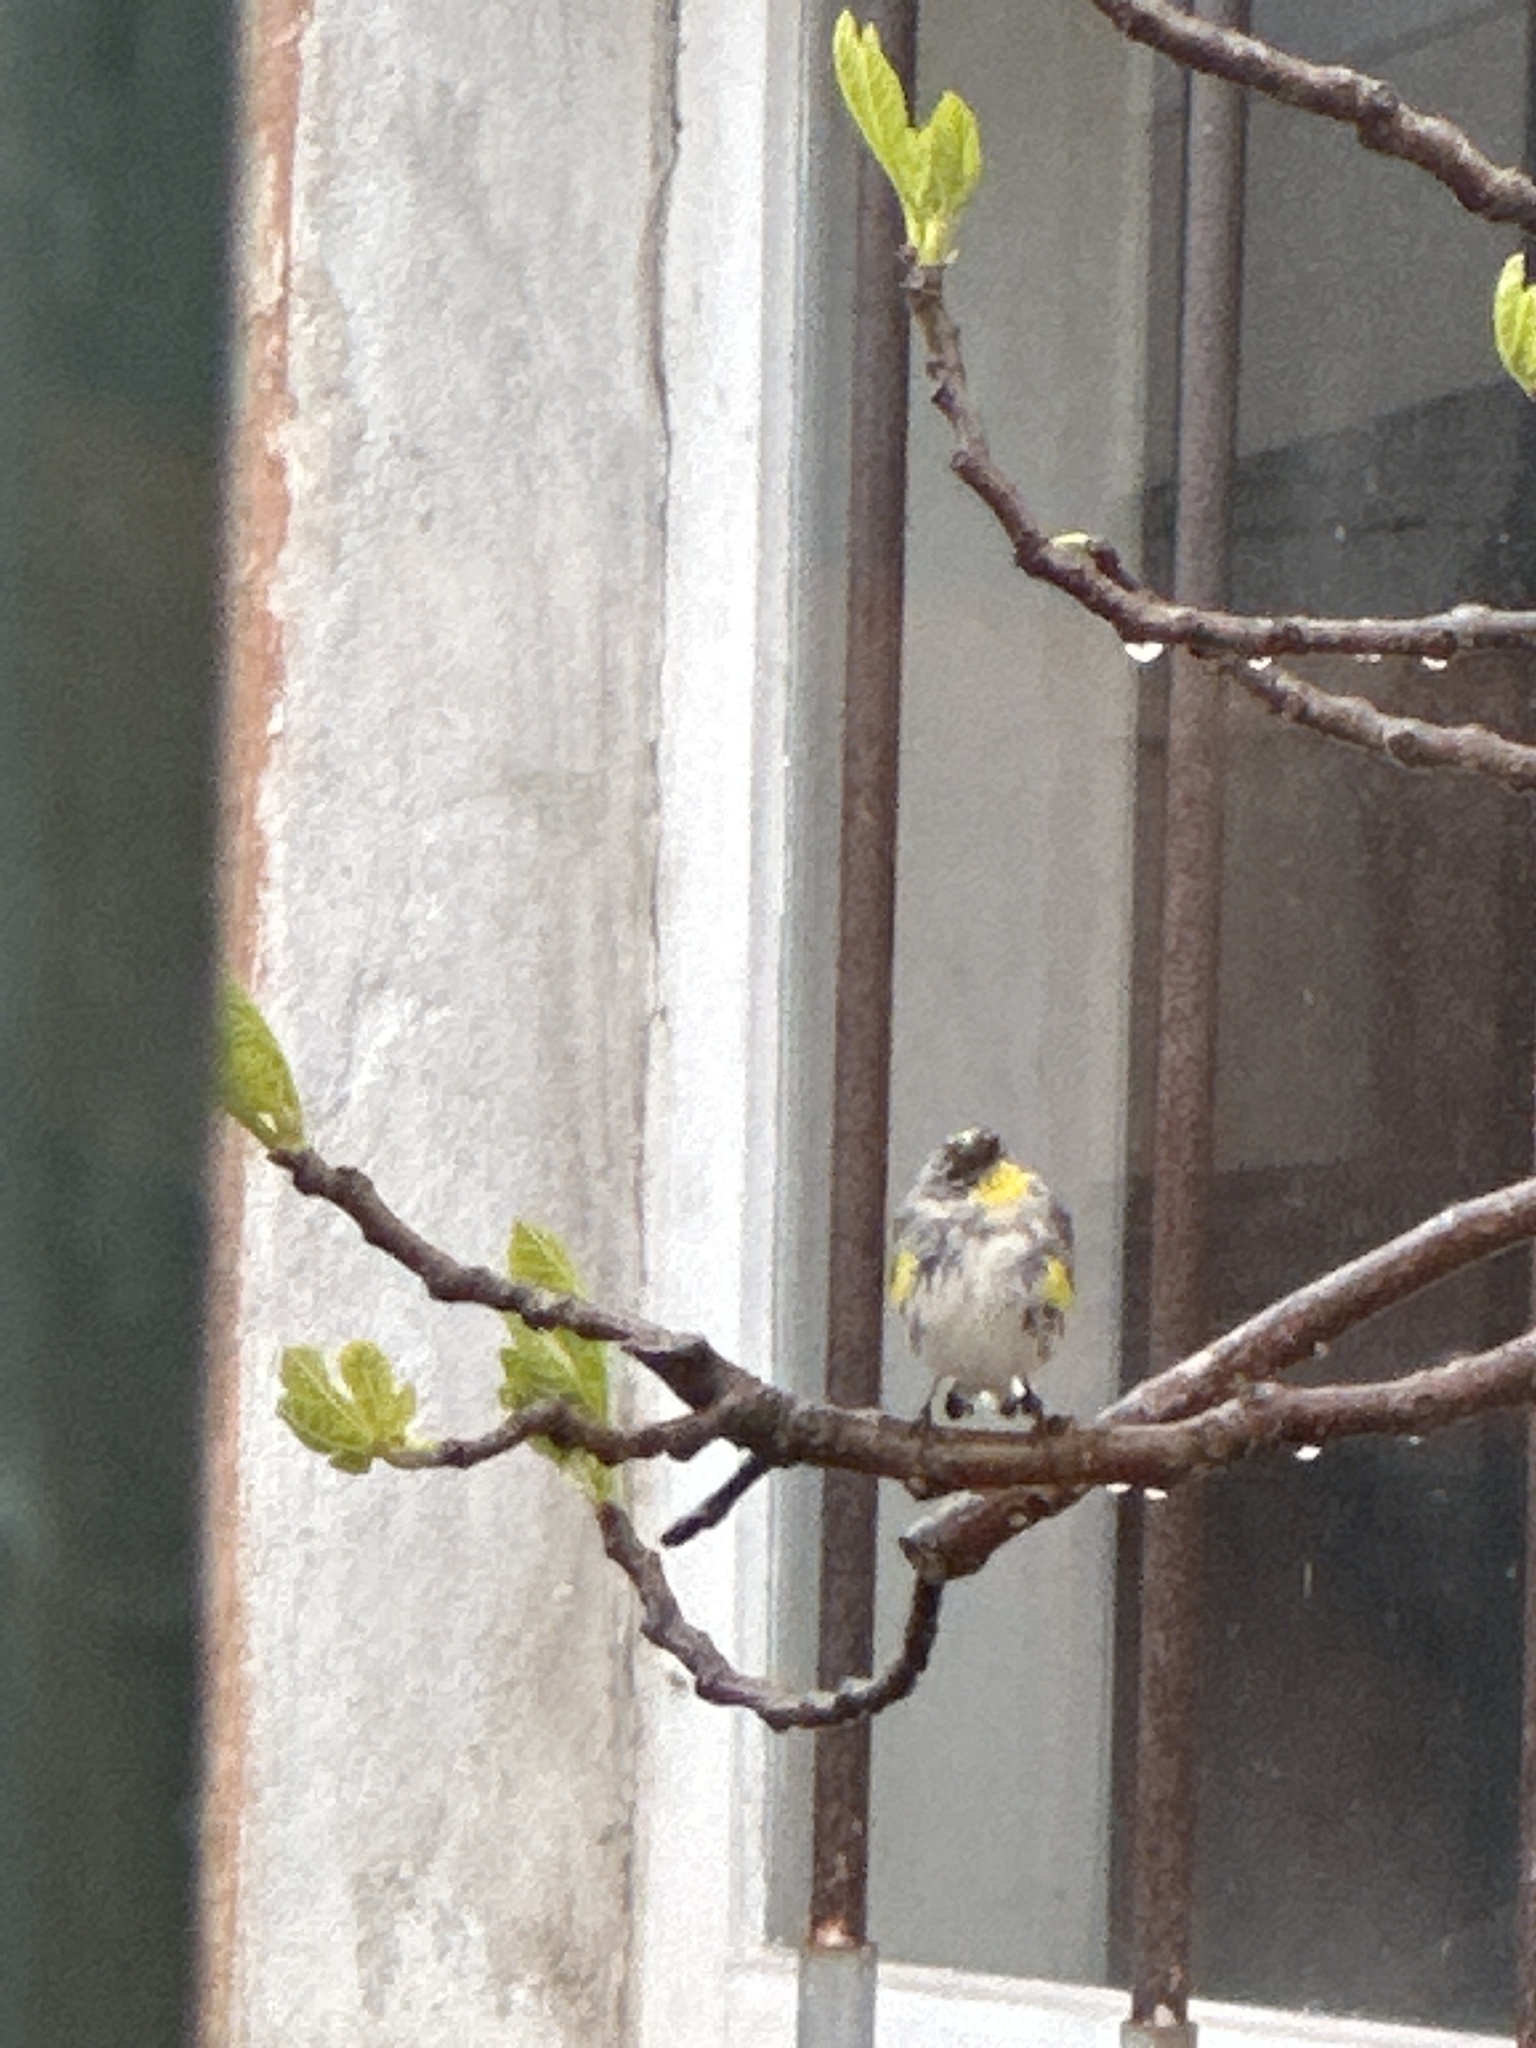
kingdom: Animalia
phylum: Chordata
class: Aves
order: Passeriformes
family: Parulidae
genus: Setophaga
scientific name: Setophaga coronata
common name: Myrtle warbler
